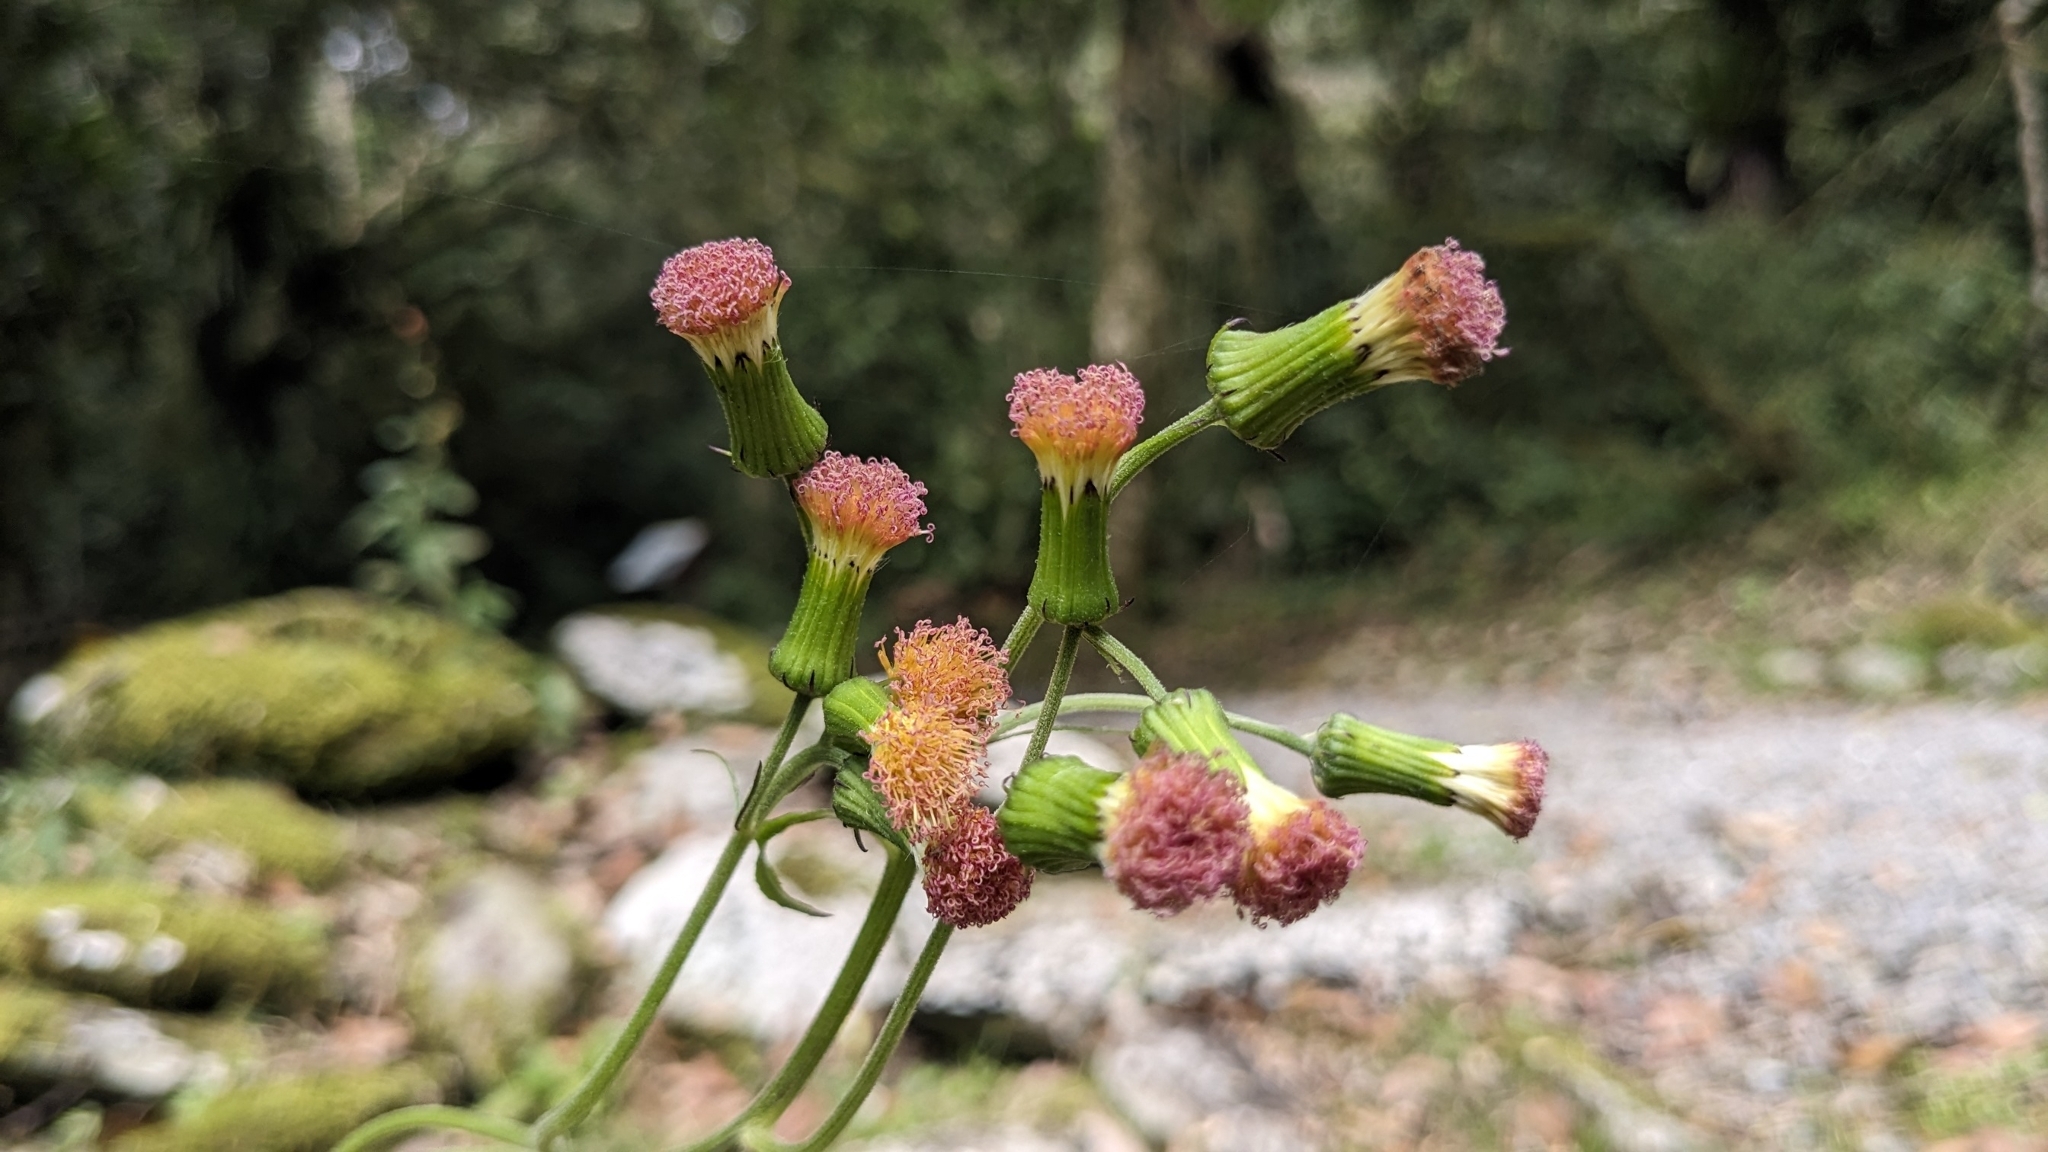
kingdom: Plantae
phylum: Tracheophyta
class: Magnoliopsida
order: Asterales
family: Asteraceae
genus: Crassocephalum
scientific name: Crassocephalum crepidioides
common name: Redflower ragleaf
